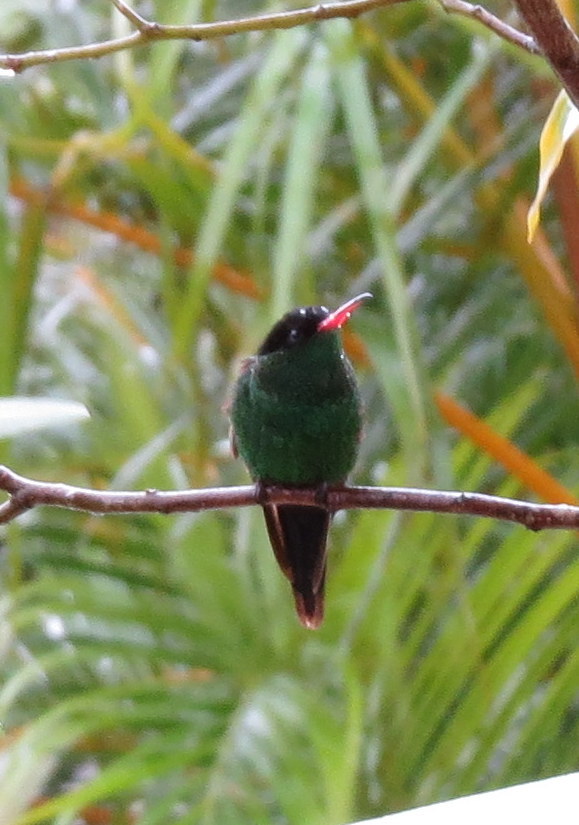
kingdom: Animalia
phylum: Chordata
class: Aves
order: Apodiformes
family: Trochilidae
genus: Trochilus
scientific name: Trochilus polytmus
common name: Red-billed streamertail
